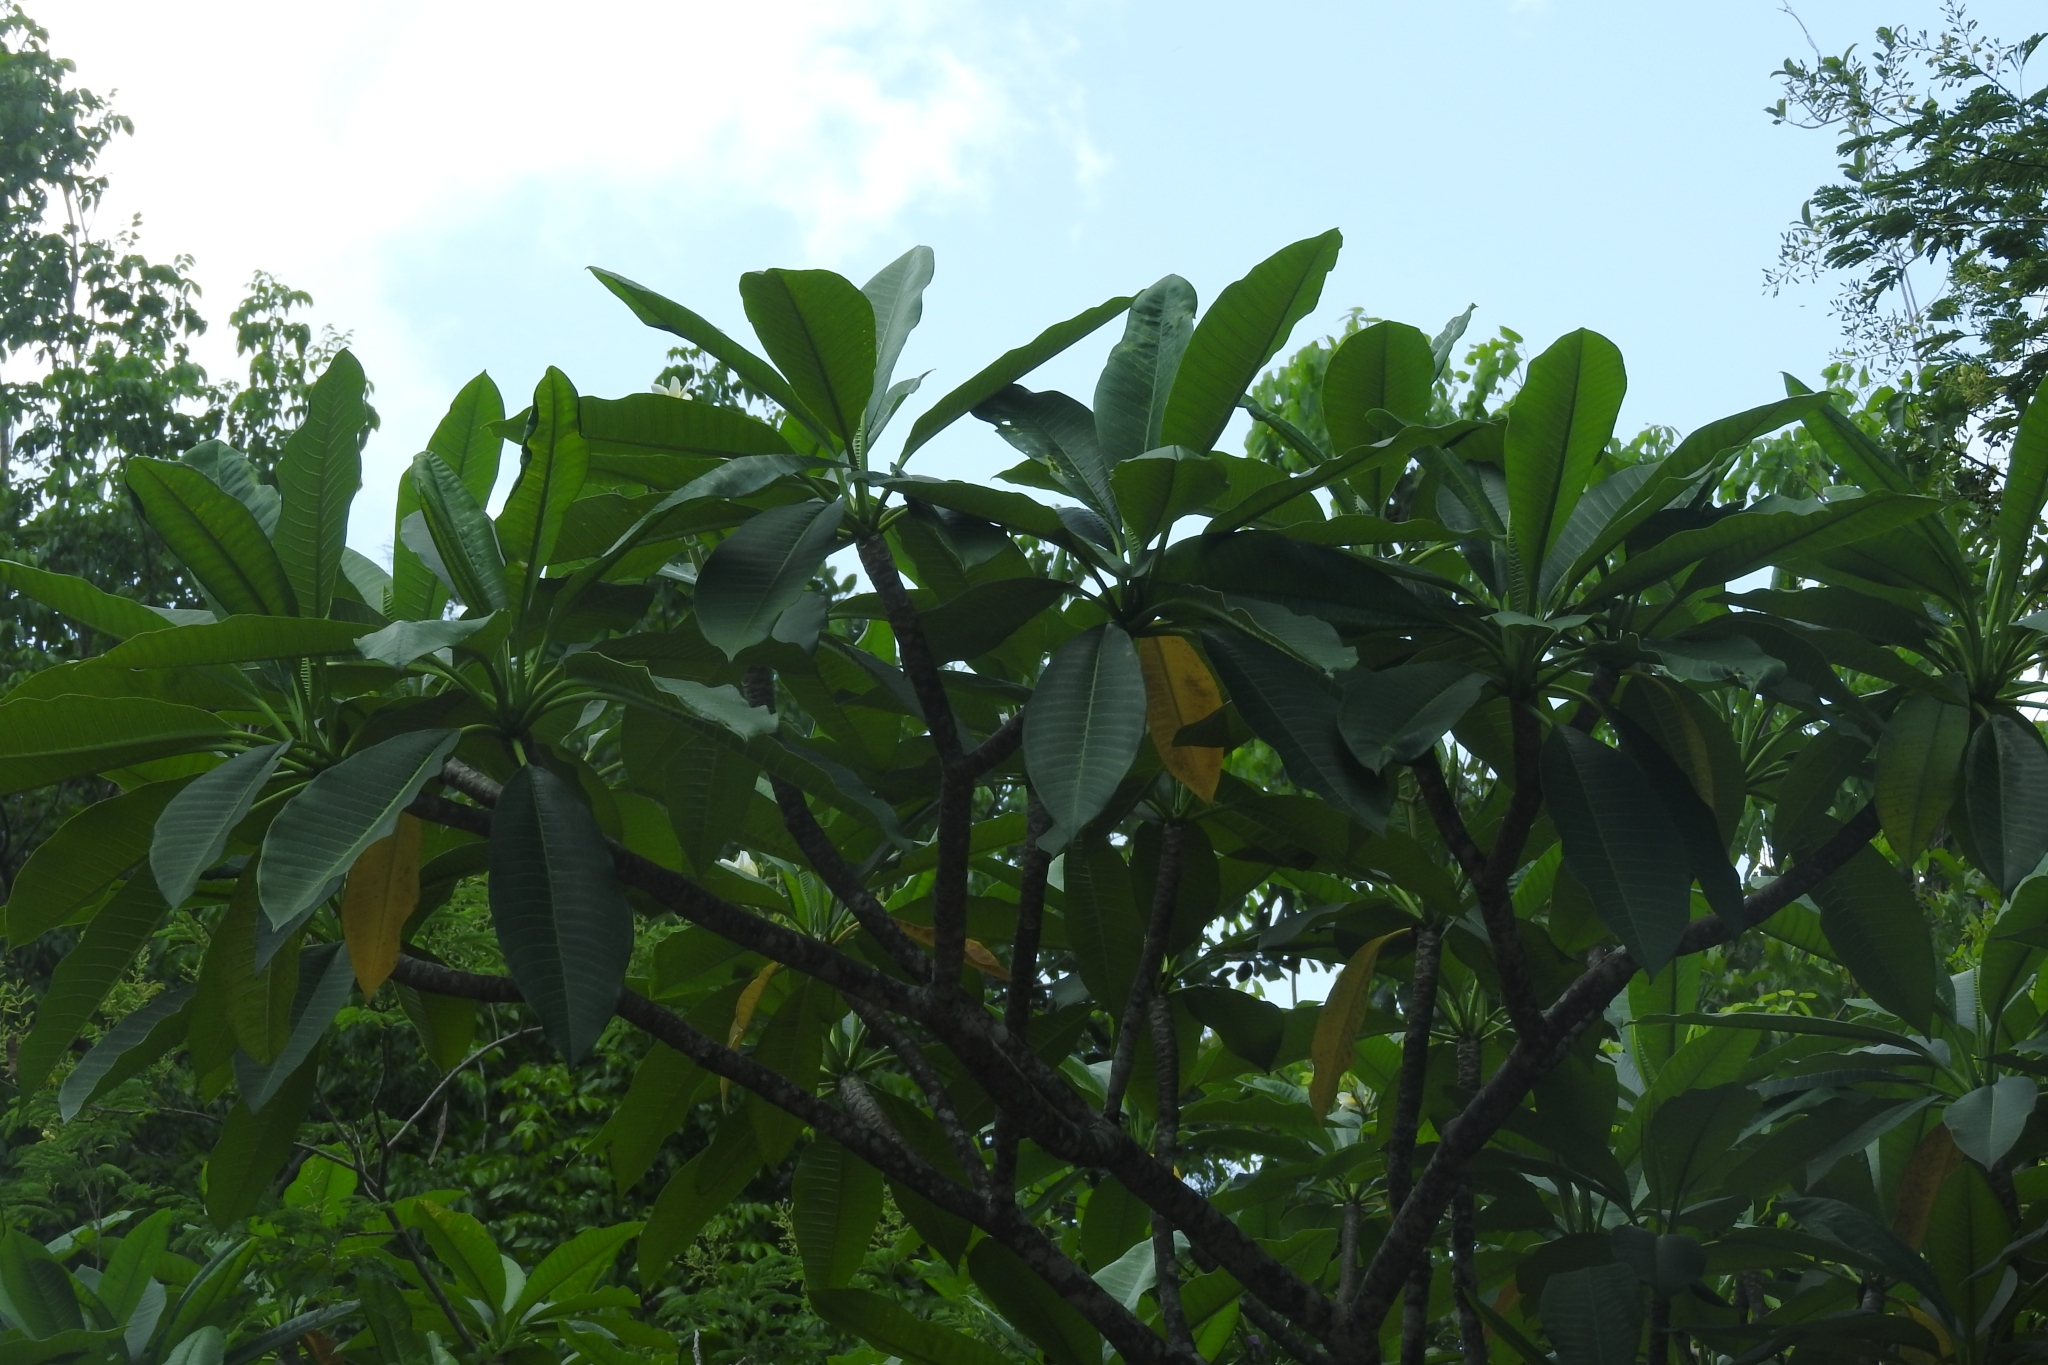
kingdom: Plantae
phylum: Tracheophyta
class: Magnoliopsida
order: Gentianales
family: Apocynaceae
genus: Plumeria
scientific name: Plumeria rubra
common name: Pagoda-tree
